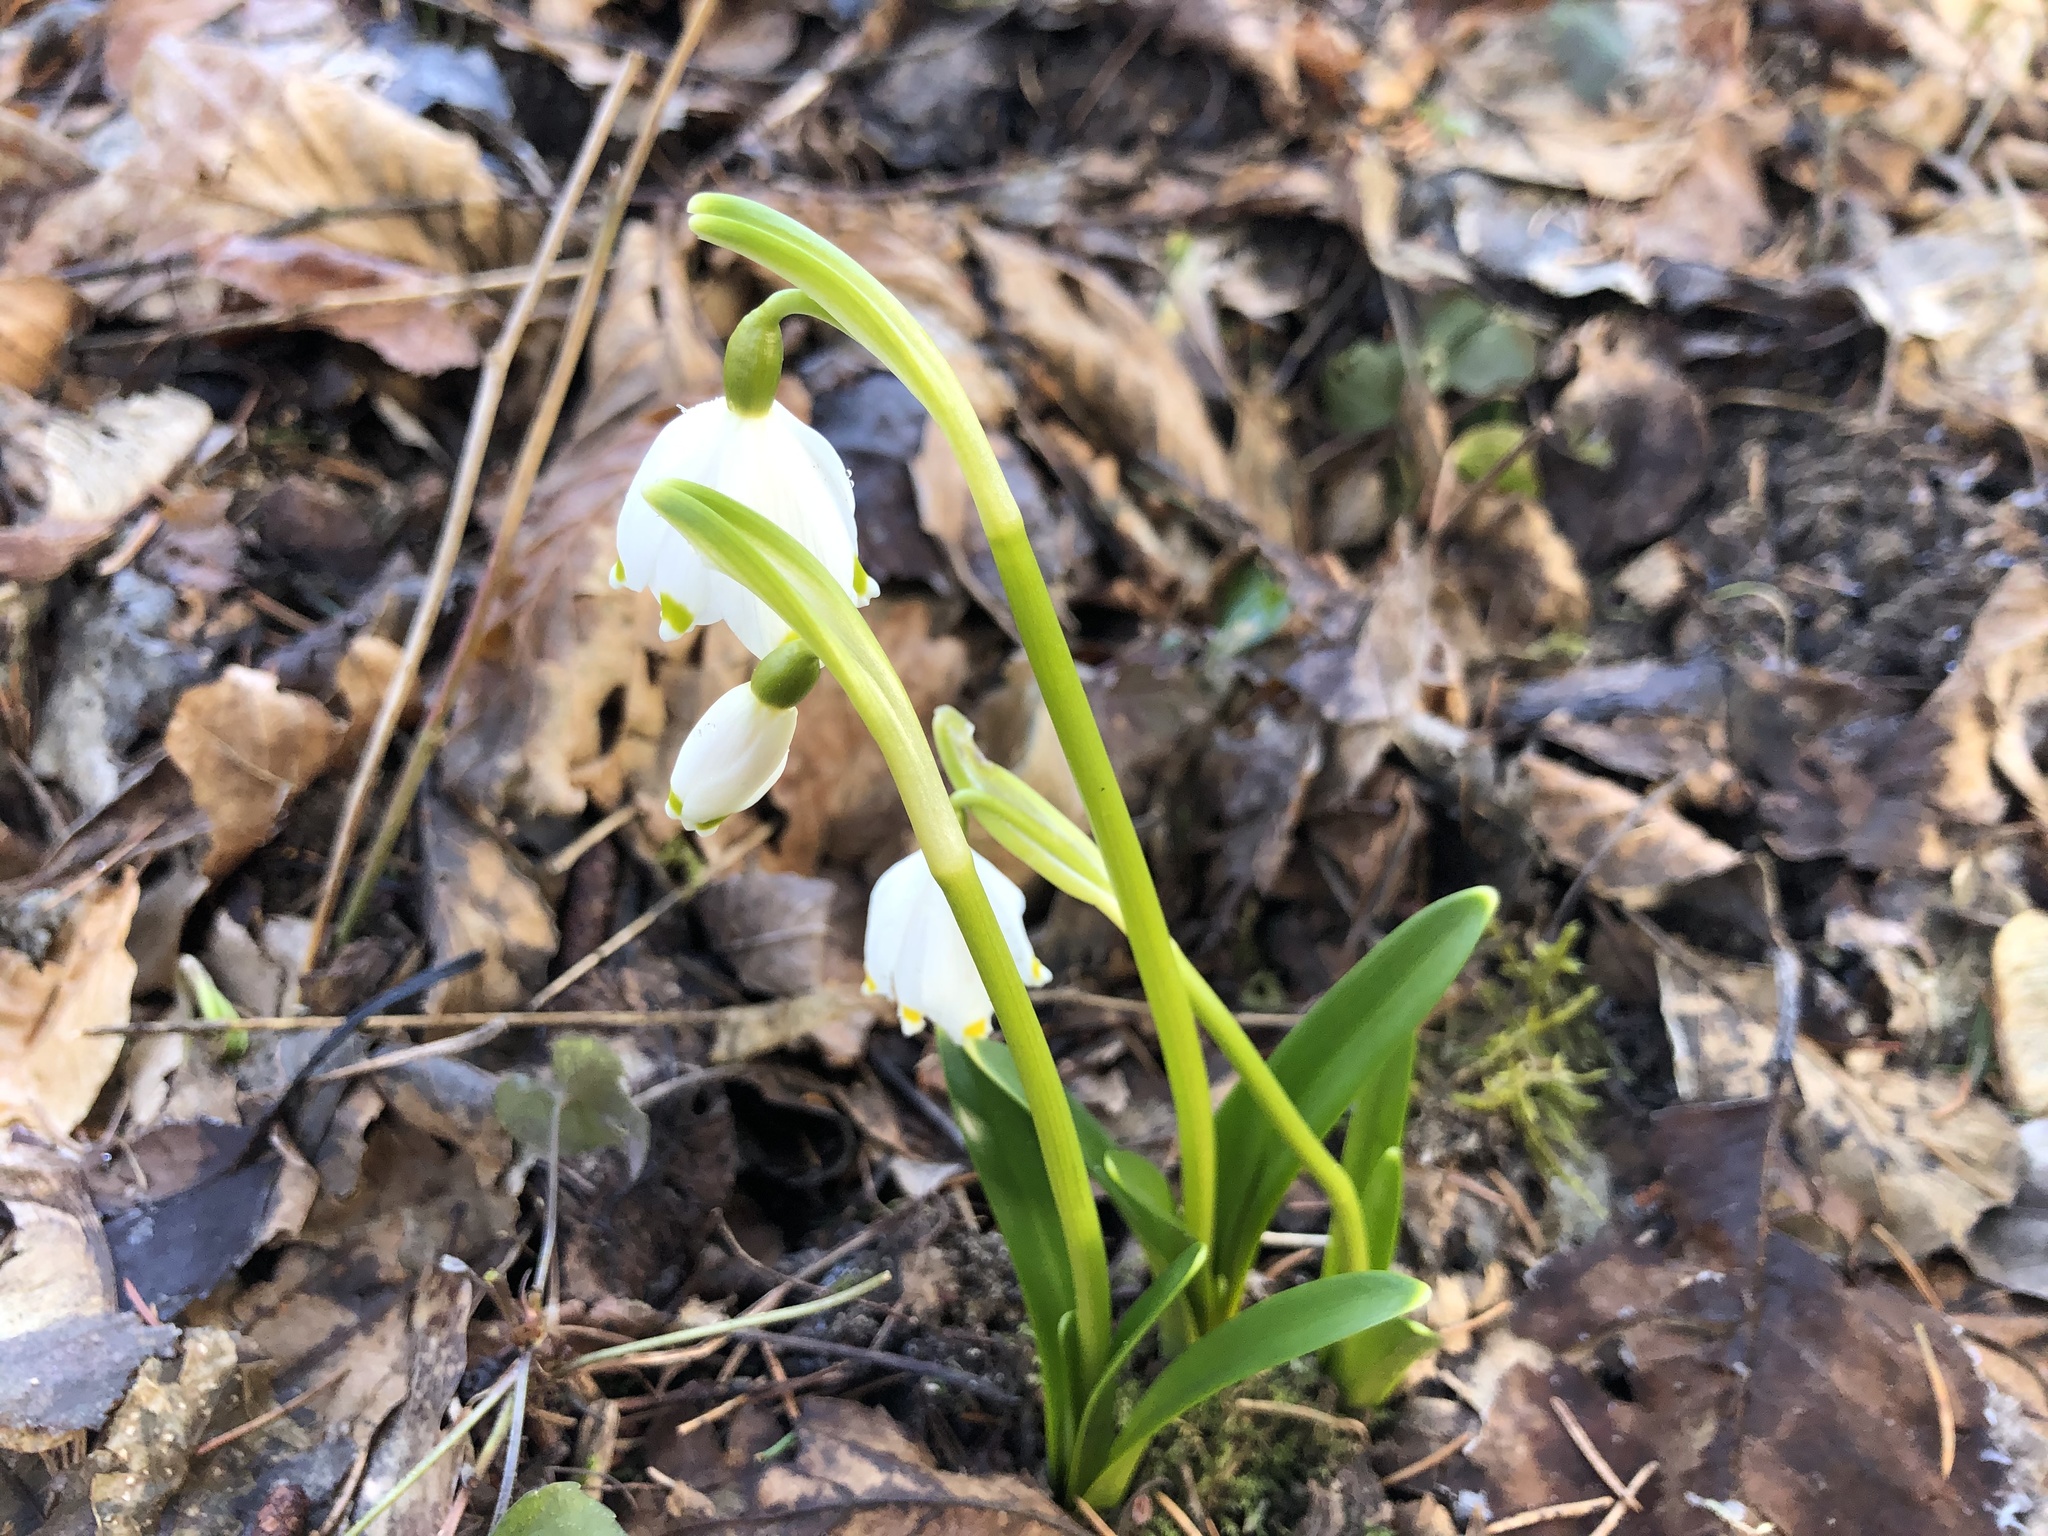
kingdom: Plantae
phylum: Tracheophyta
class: Liliopsida
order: Asparagales
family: Amaryllidaceae
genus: Leucojum
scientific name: Leucojum vernum
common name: Spring snowflake
